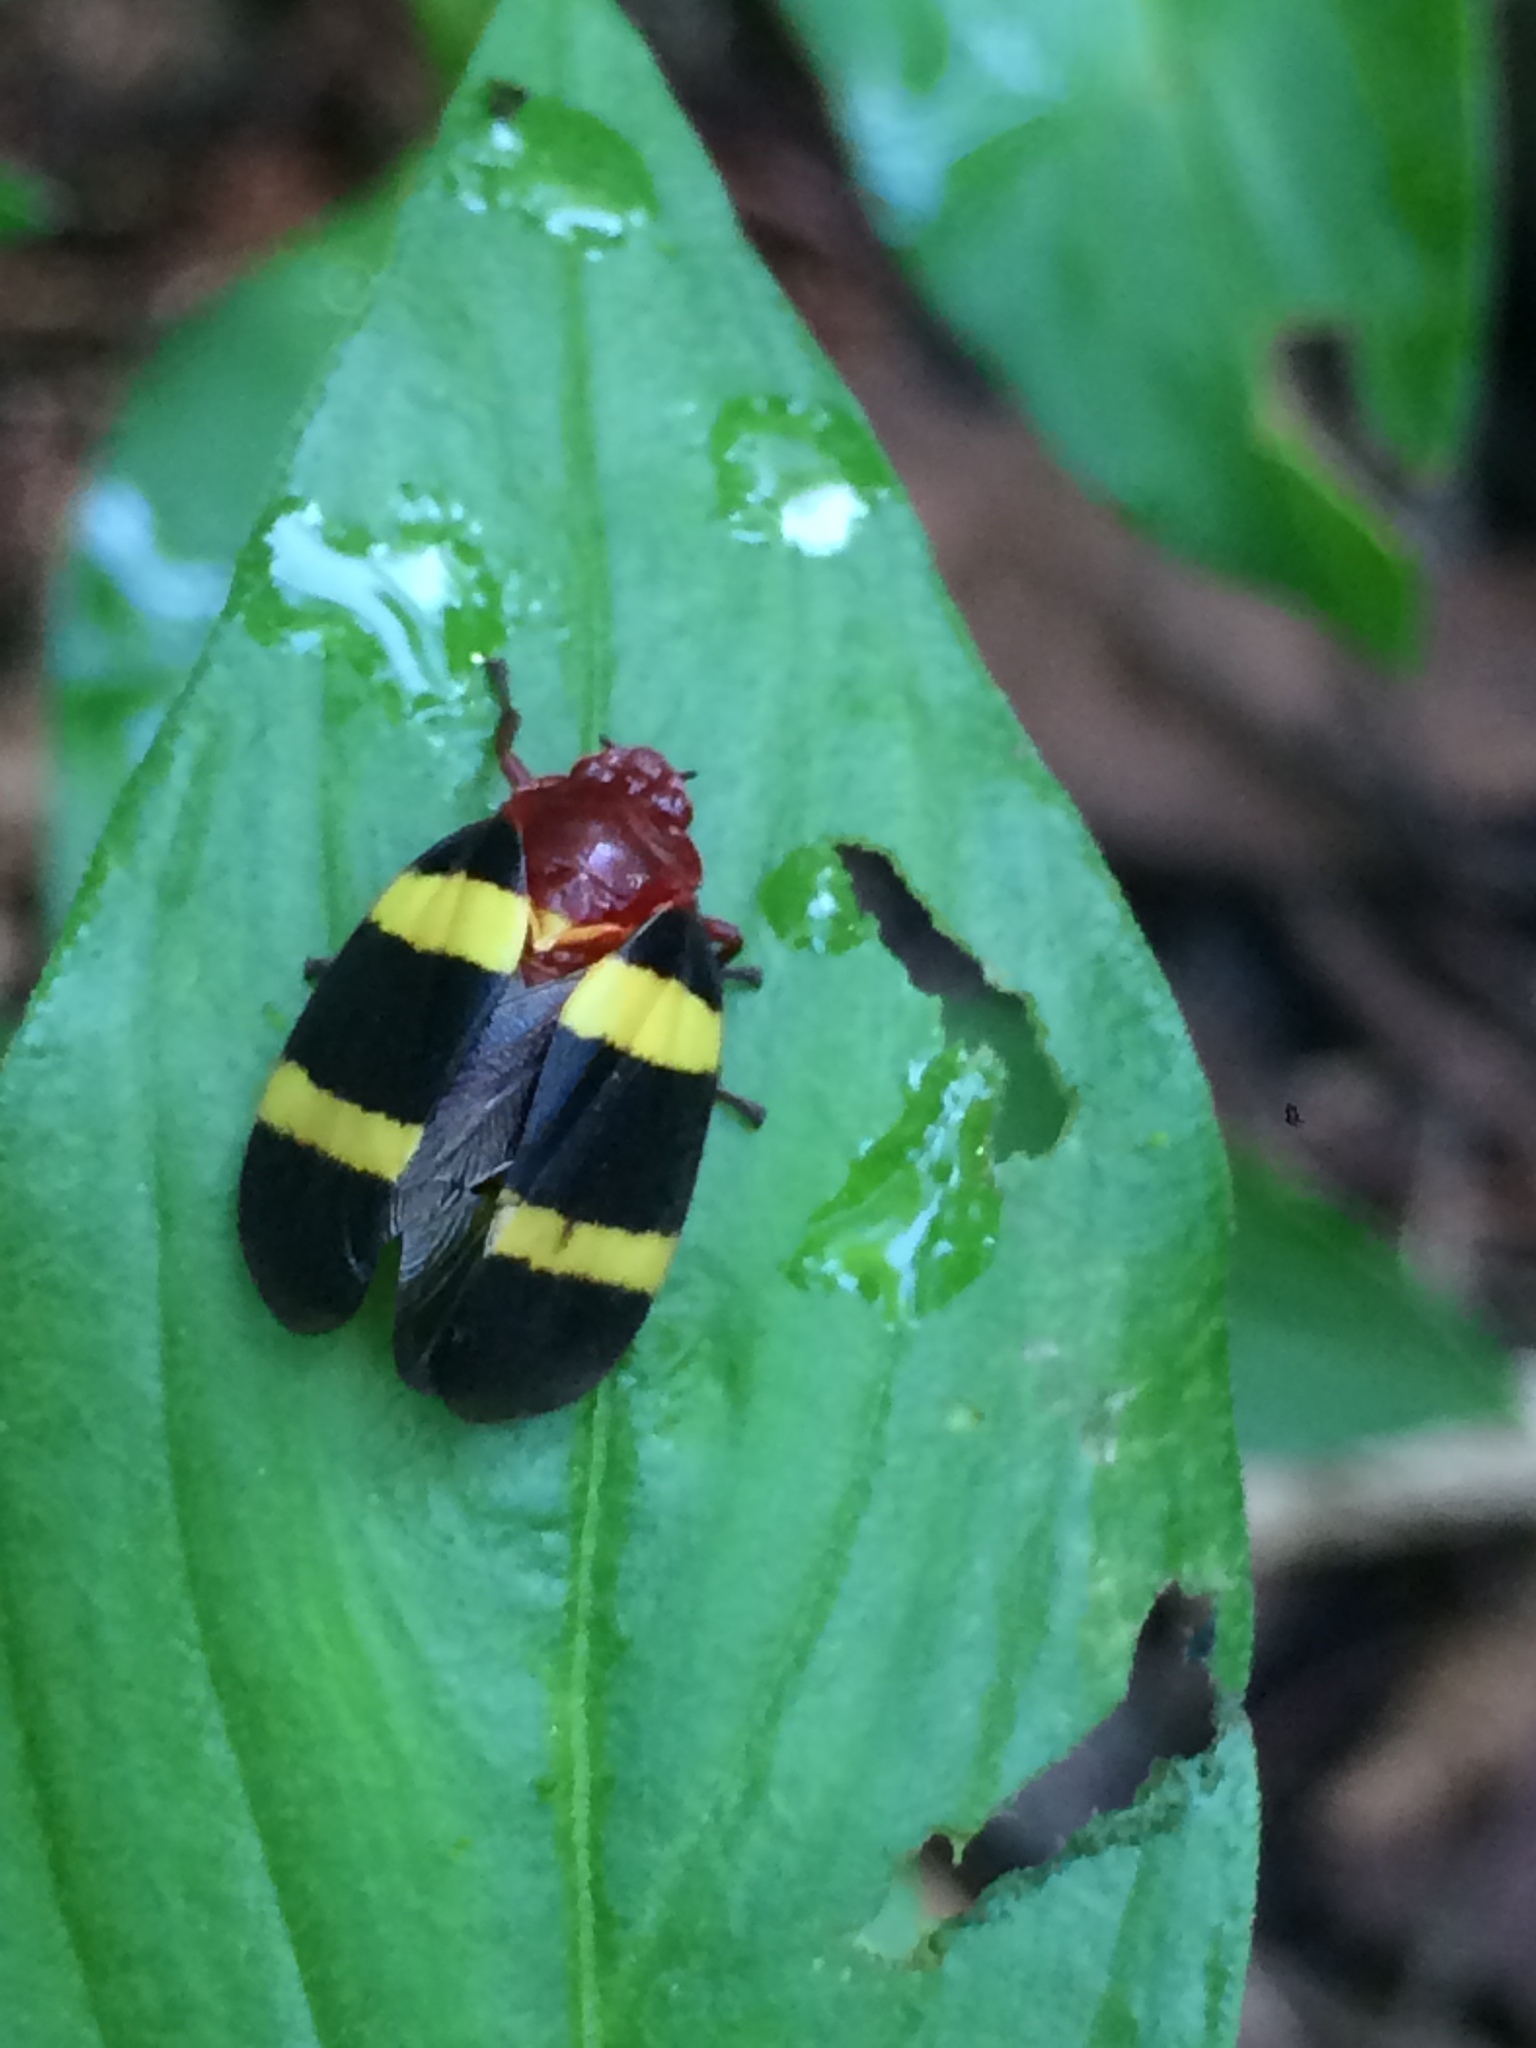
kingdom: Animalia
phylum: Arthropoda
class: Insecta
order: Hemiptera
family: Cercopidae
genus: Sphenorhina
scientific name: Sphenorhina rubra
